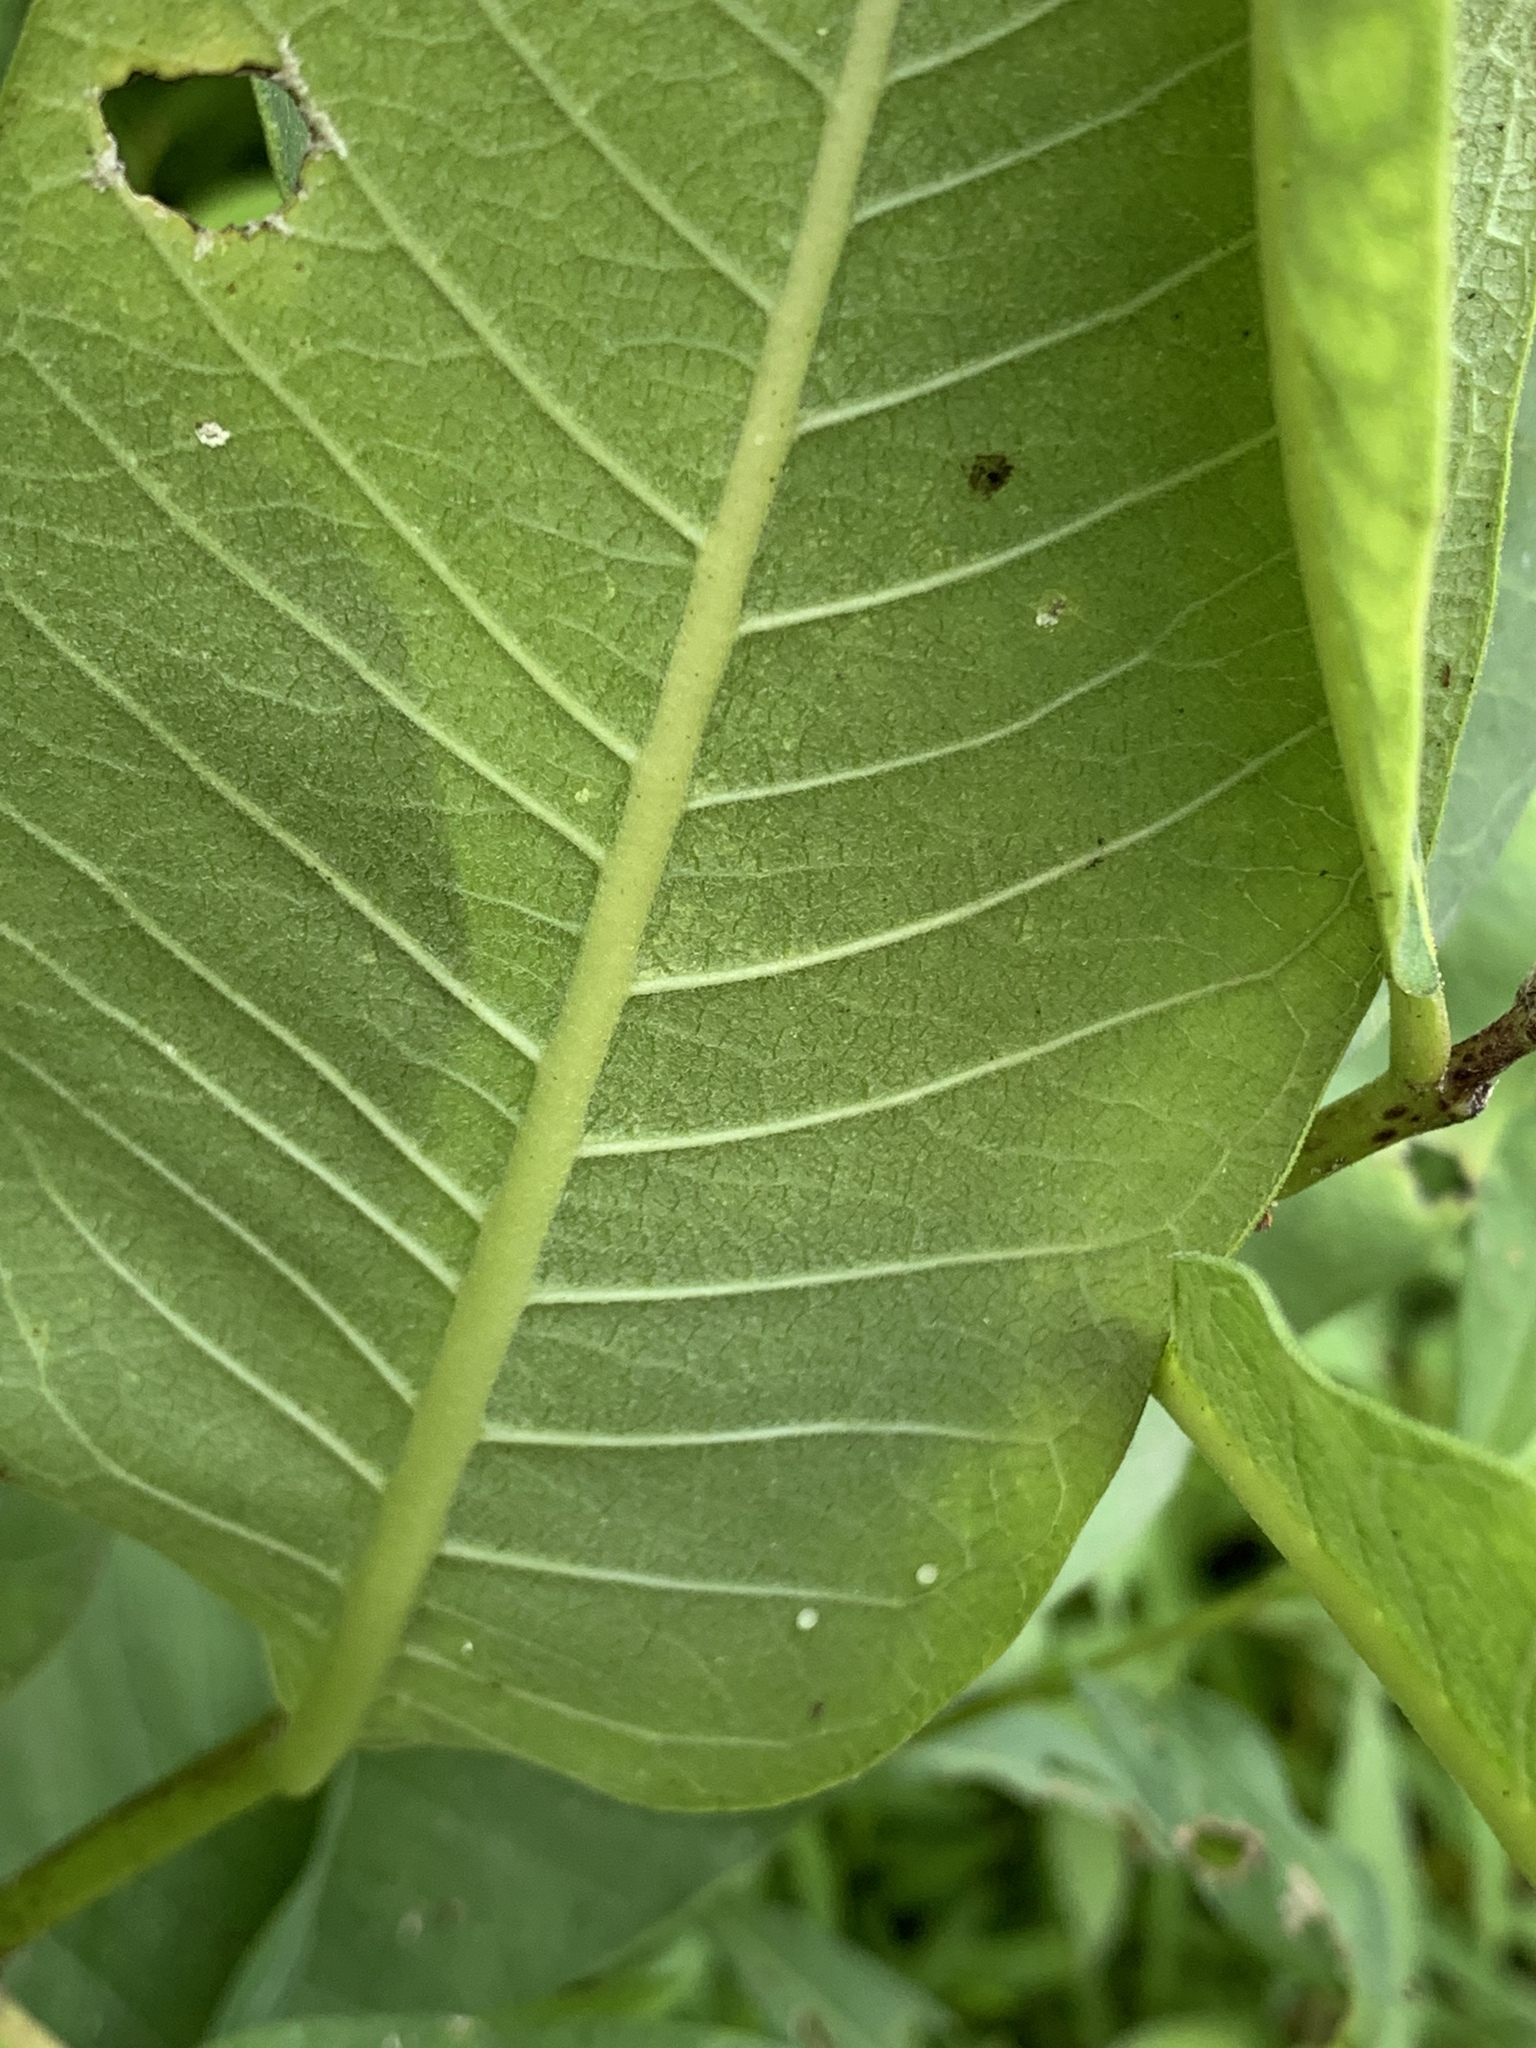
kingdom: Animalia
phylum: Arthropoda
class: Insecta
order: Lepidoptera
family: Nymphalidae
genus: Danaus
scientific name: Danaus plexippus
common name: Monarch
